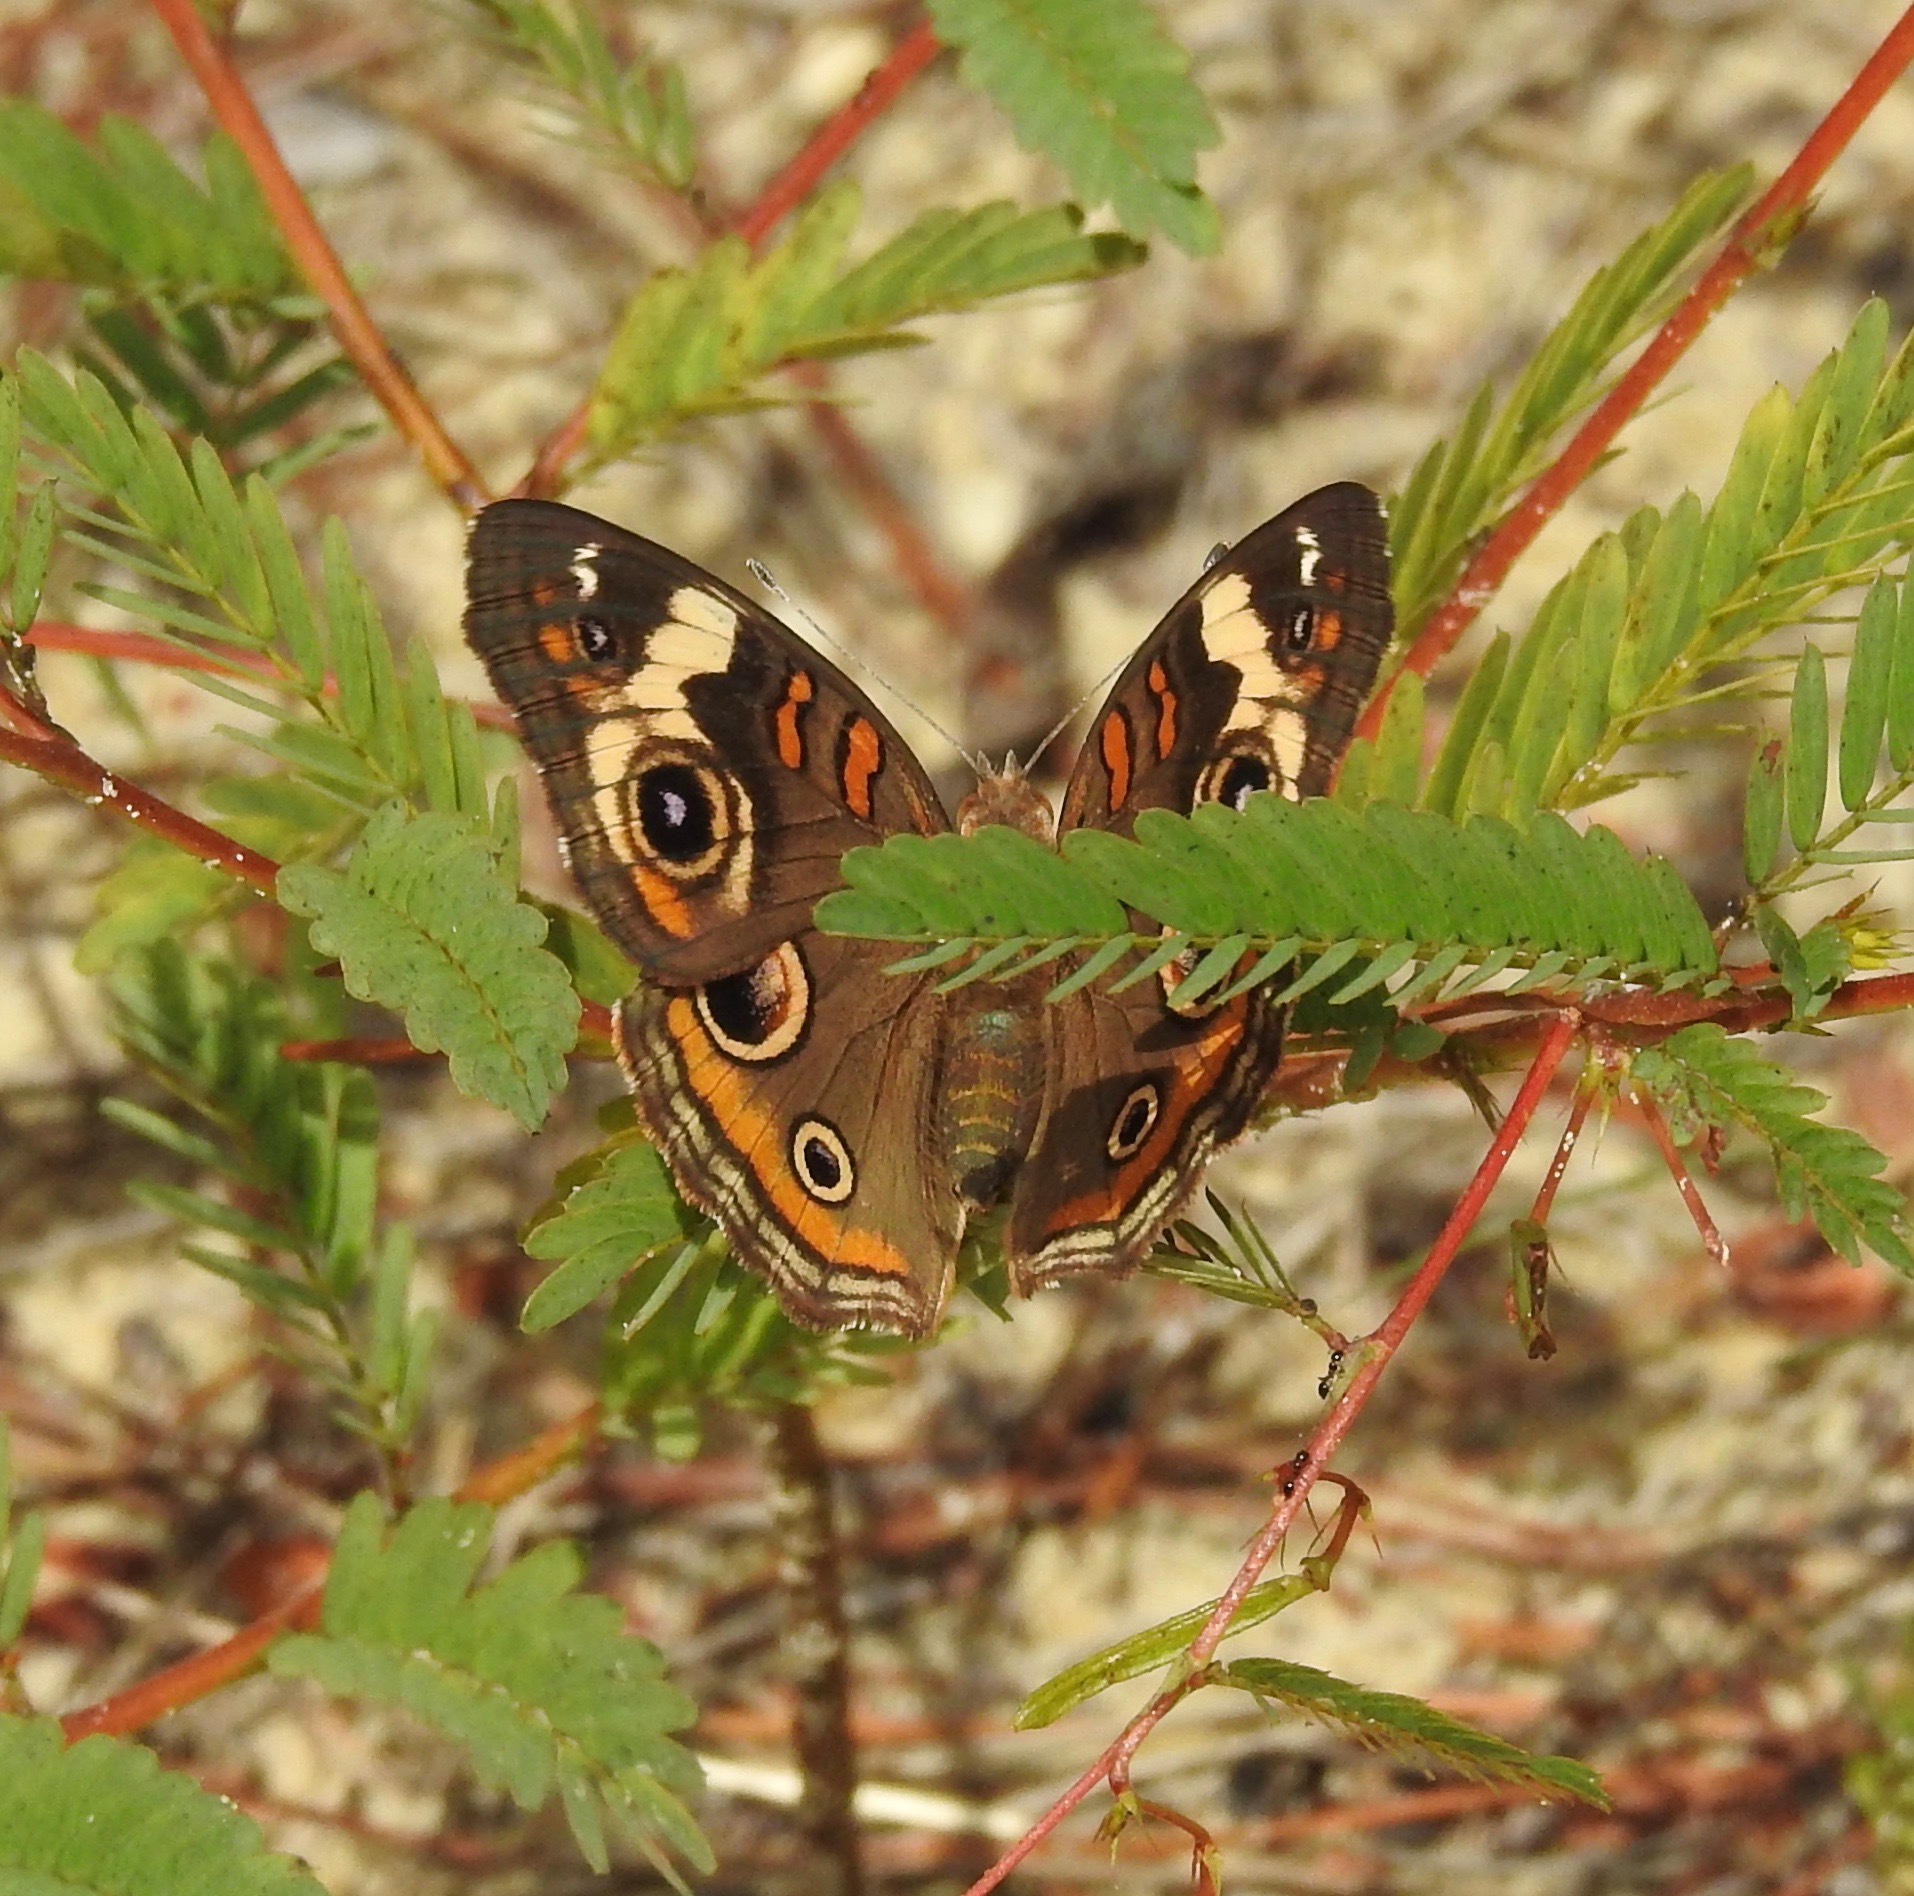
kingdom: Animalia
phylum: Arthropoda
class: Insecta
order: Lepidoptera
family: Nymphalidae
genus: Junonia
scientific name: Junonia coenia
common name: Common buckeye
